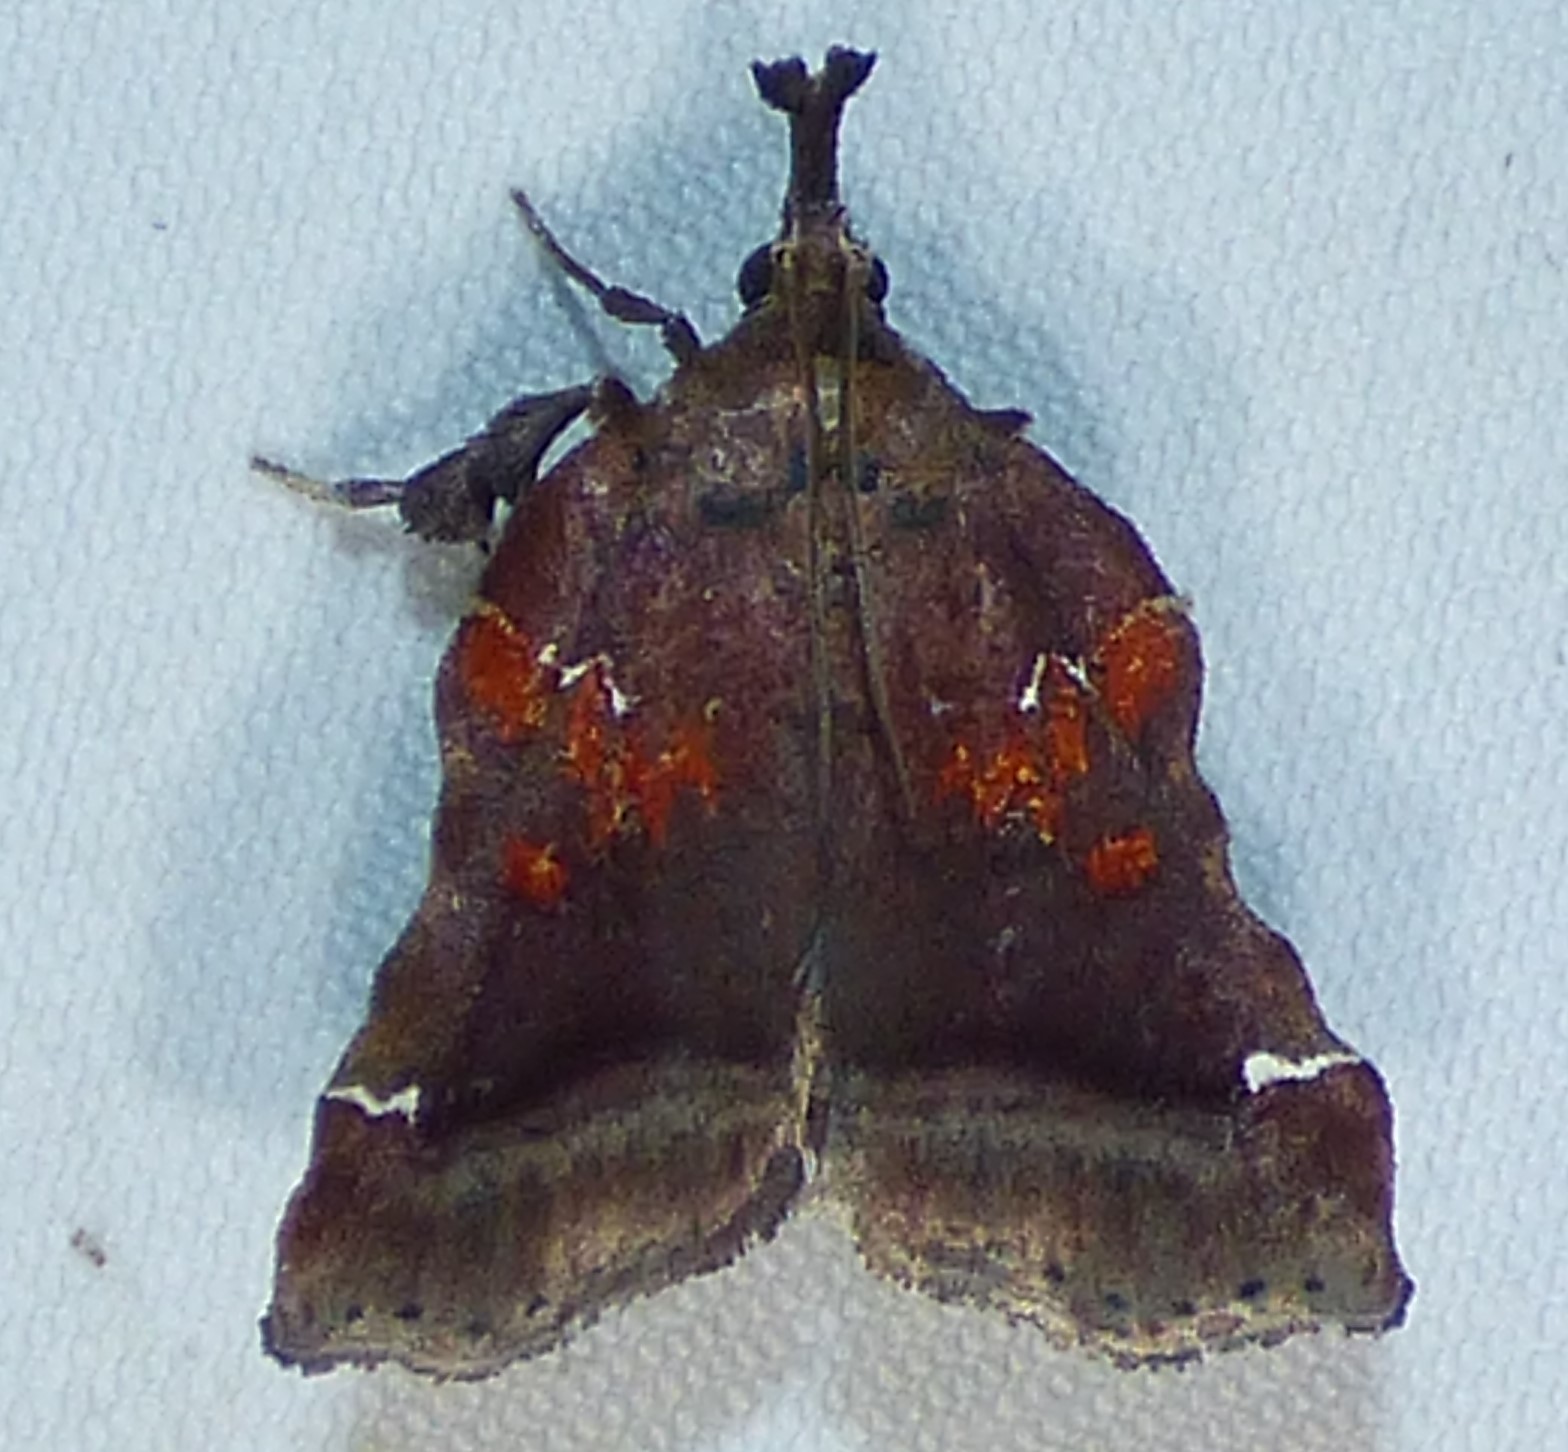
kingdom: Animalia
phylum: Arthropoda
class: Insecta
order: Lepidoptera
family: Pyralidae
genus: Clydonopteron
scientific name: Clydonopteron sacculana
